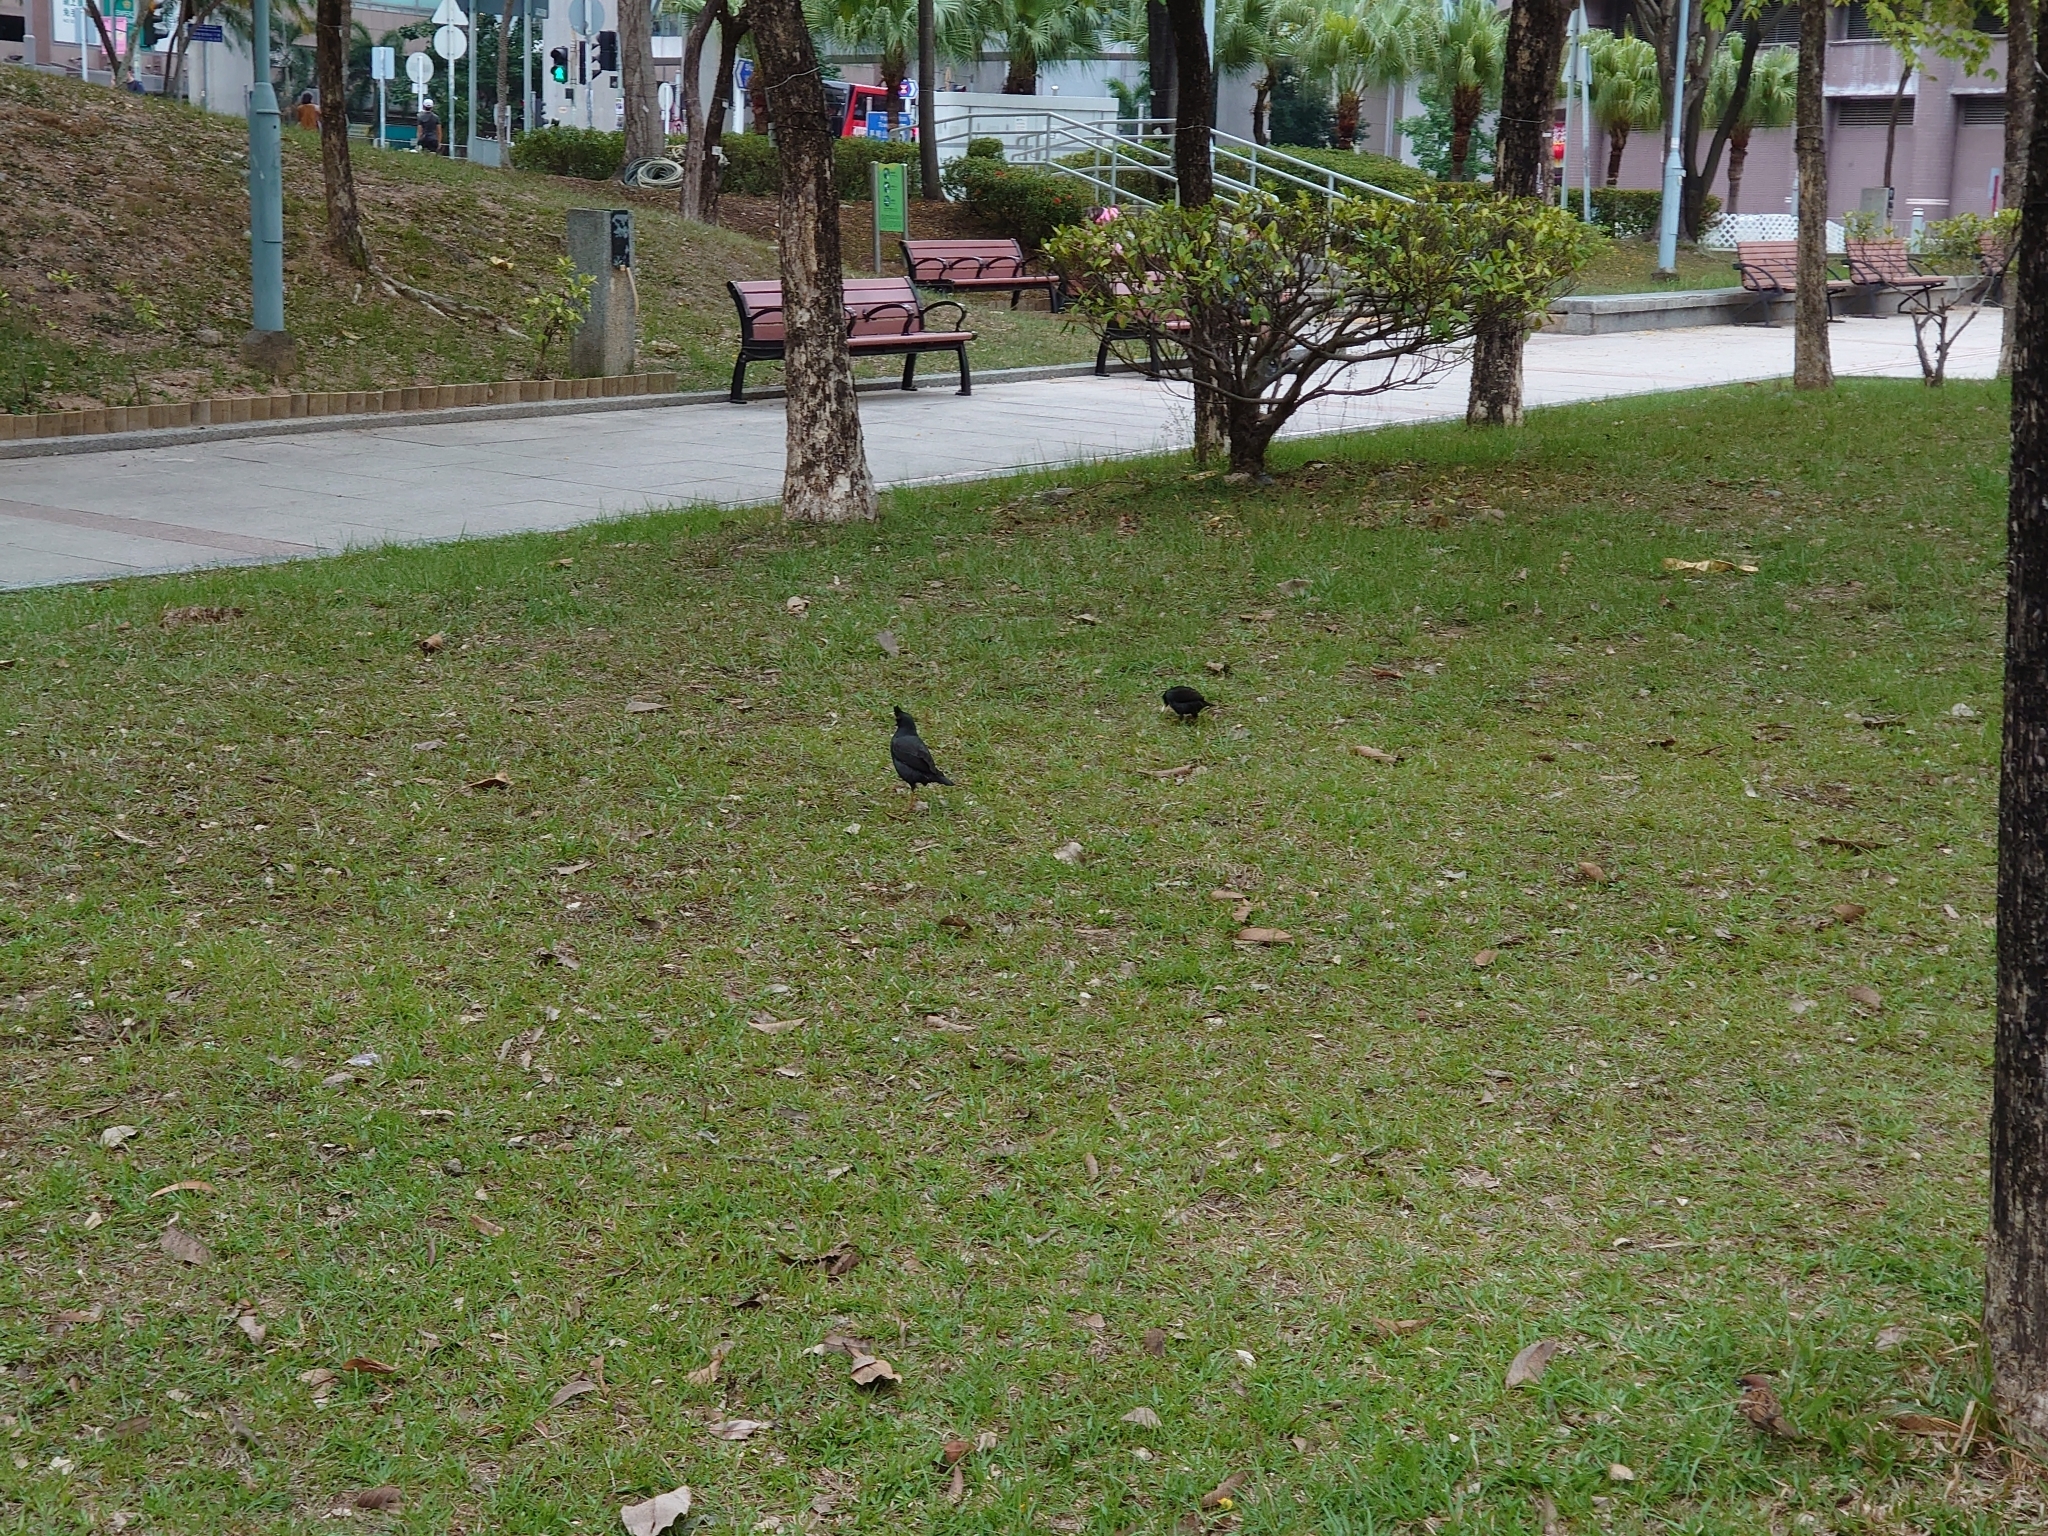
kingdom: Animalia
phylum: Chordata
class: Aves
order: Passeriformes
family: Sturnidae
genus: Acridotheres
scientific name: Acridotheres cristatellus
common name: Crested myna
